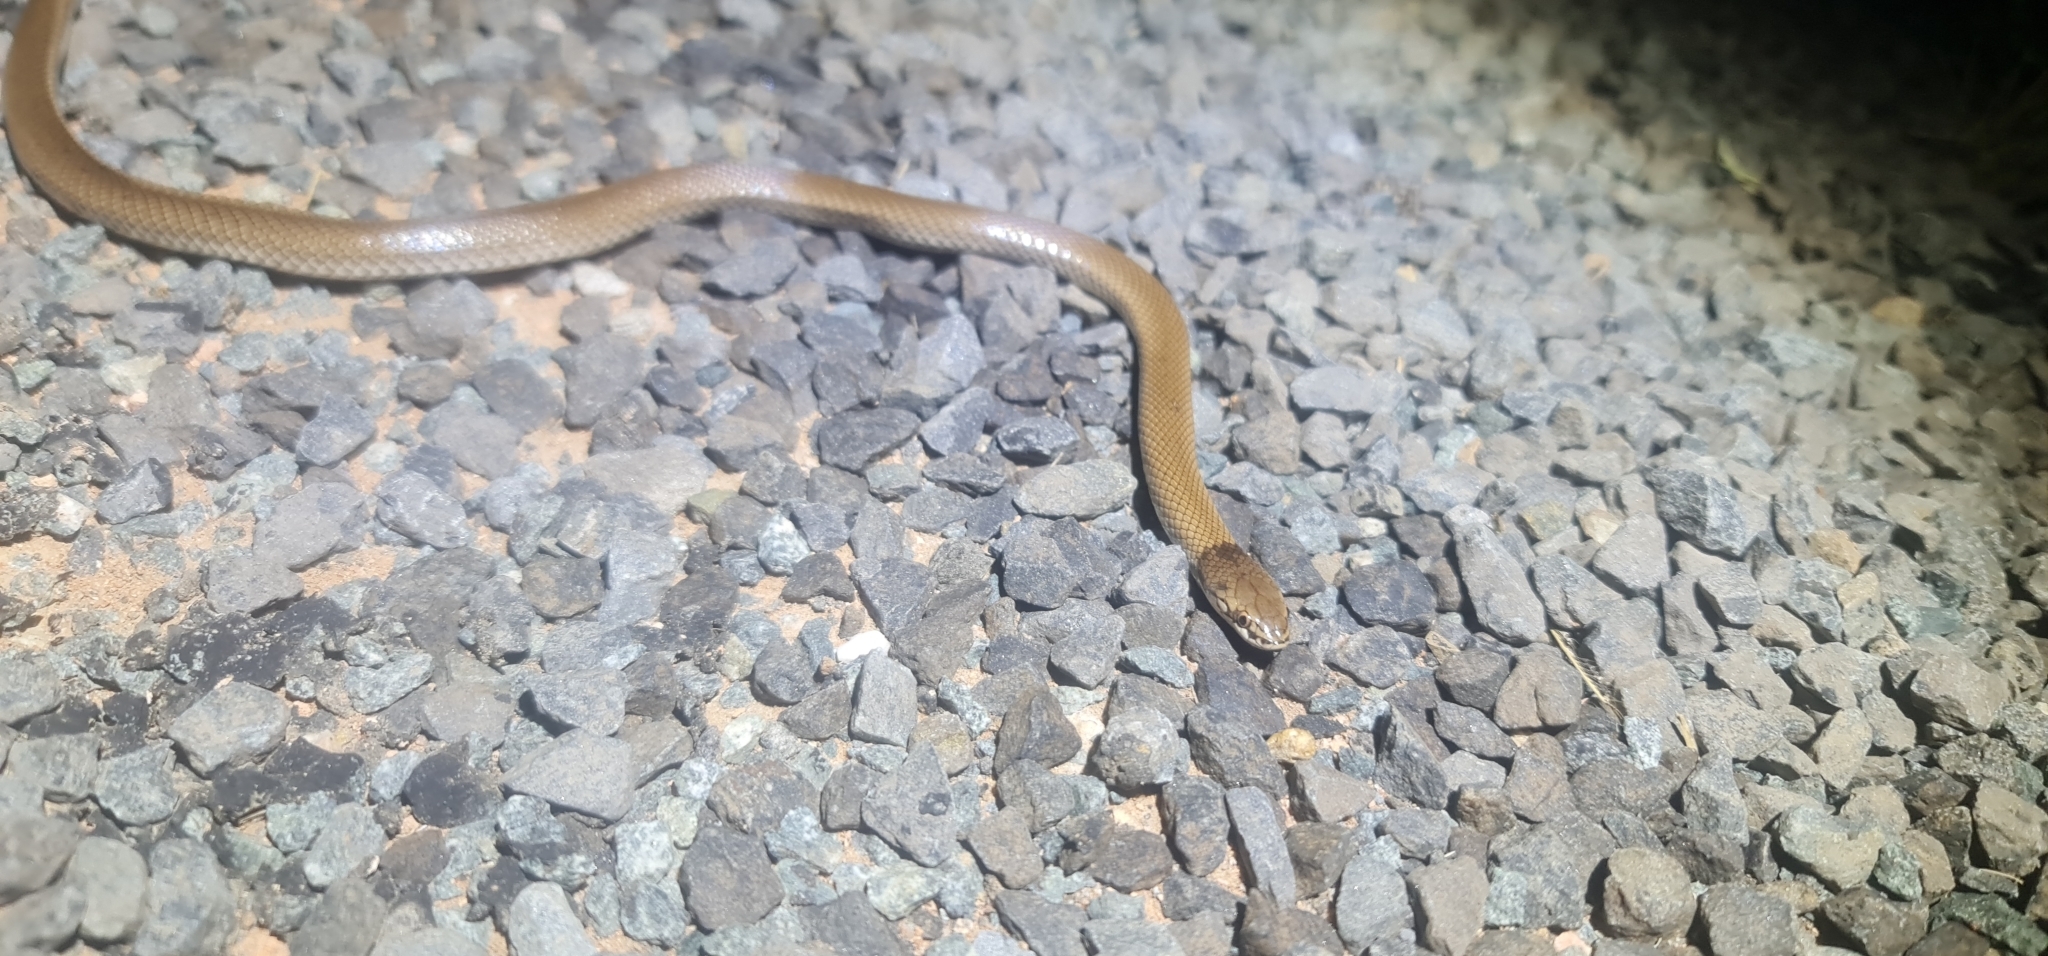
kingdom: Animalia
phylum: Chordata
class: Squamata
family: Elapidae
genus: Suta
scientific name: Suta suta
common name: Curl snake
